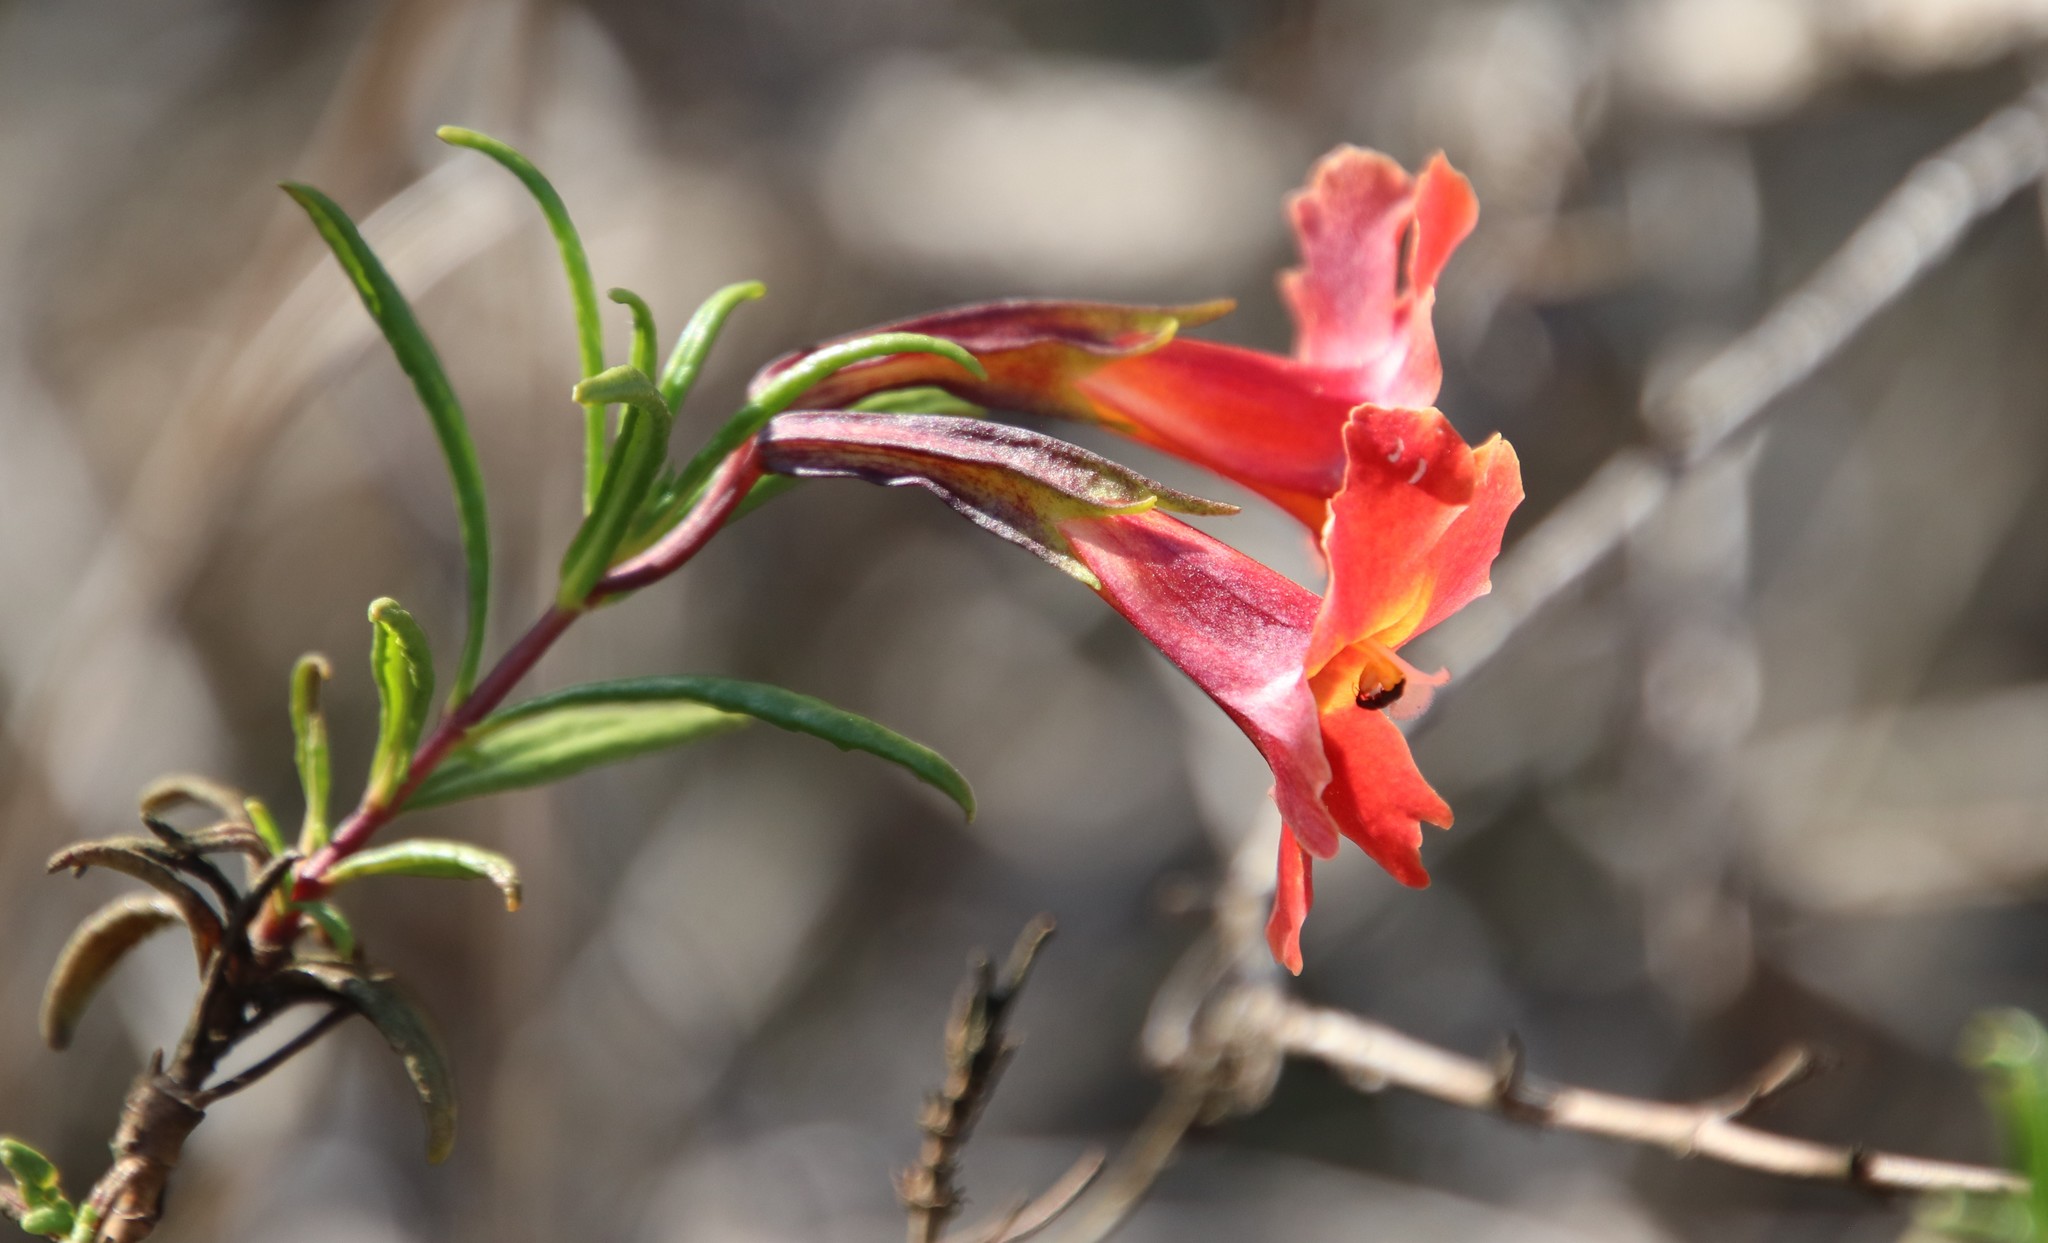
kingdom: Plantae
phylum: Tracheophyta
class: Magnoliopsida
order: Lamiales
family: Phrymaceae
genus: Diplacus
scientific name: Diplacus puniceus
